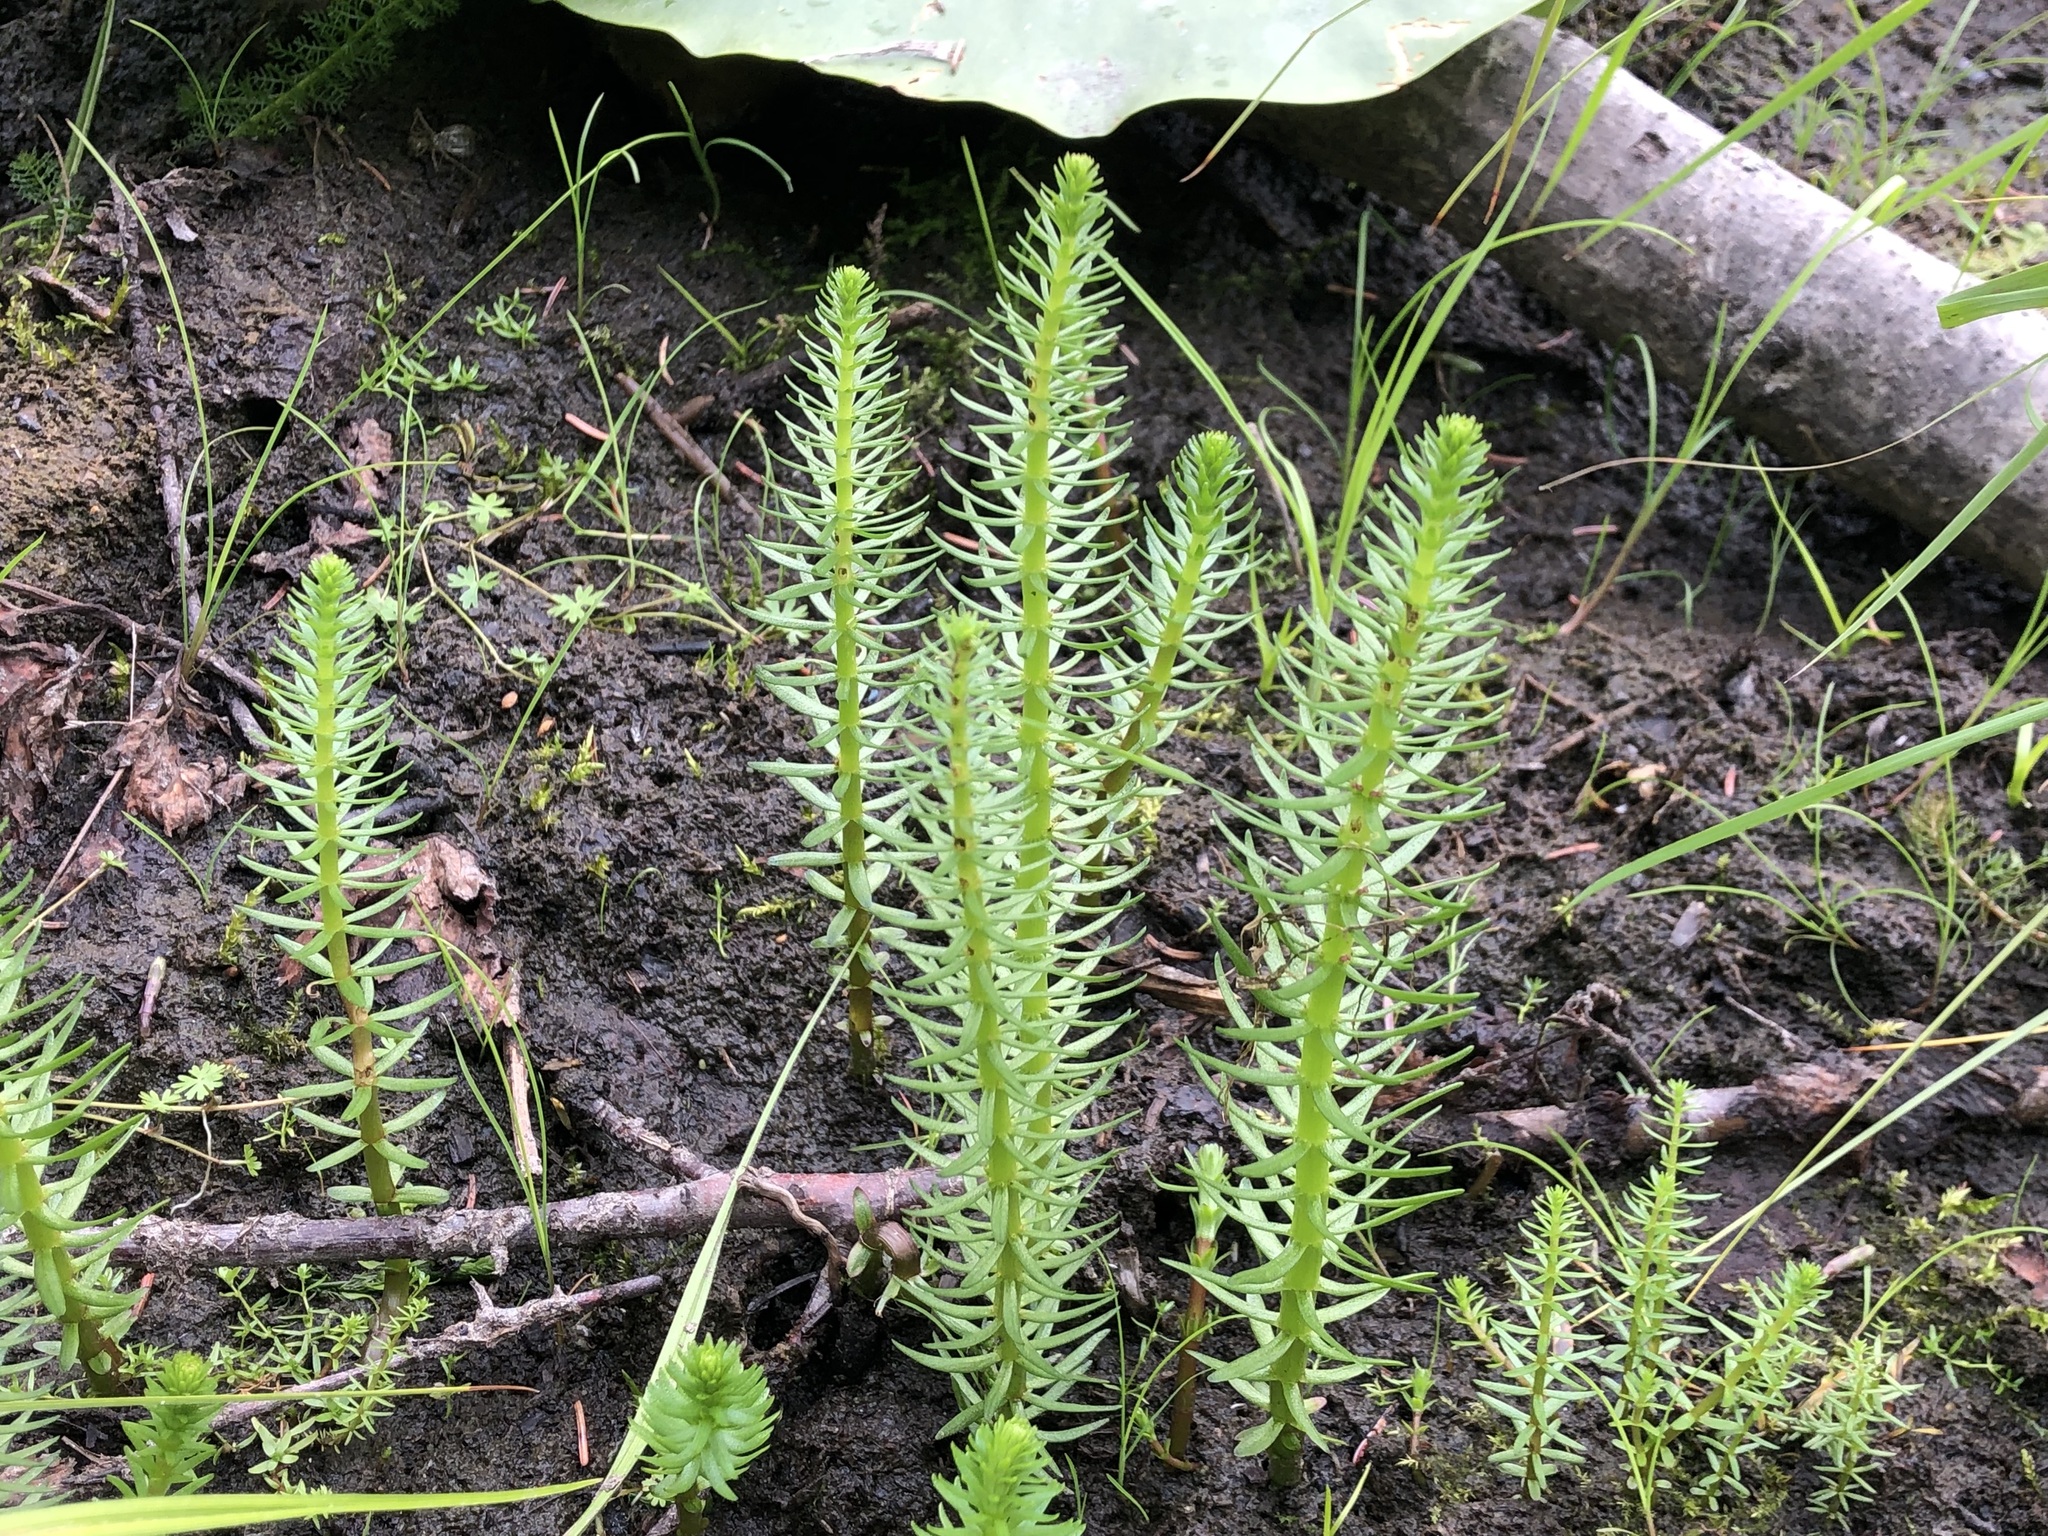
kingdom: Plantae
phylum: Tracheophyta
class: Magnoliopsida
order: Lamiales
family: Plantaginaceae
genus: Hippuris
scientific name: Hippuris vulgaris
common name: Mare's-tail
